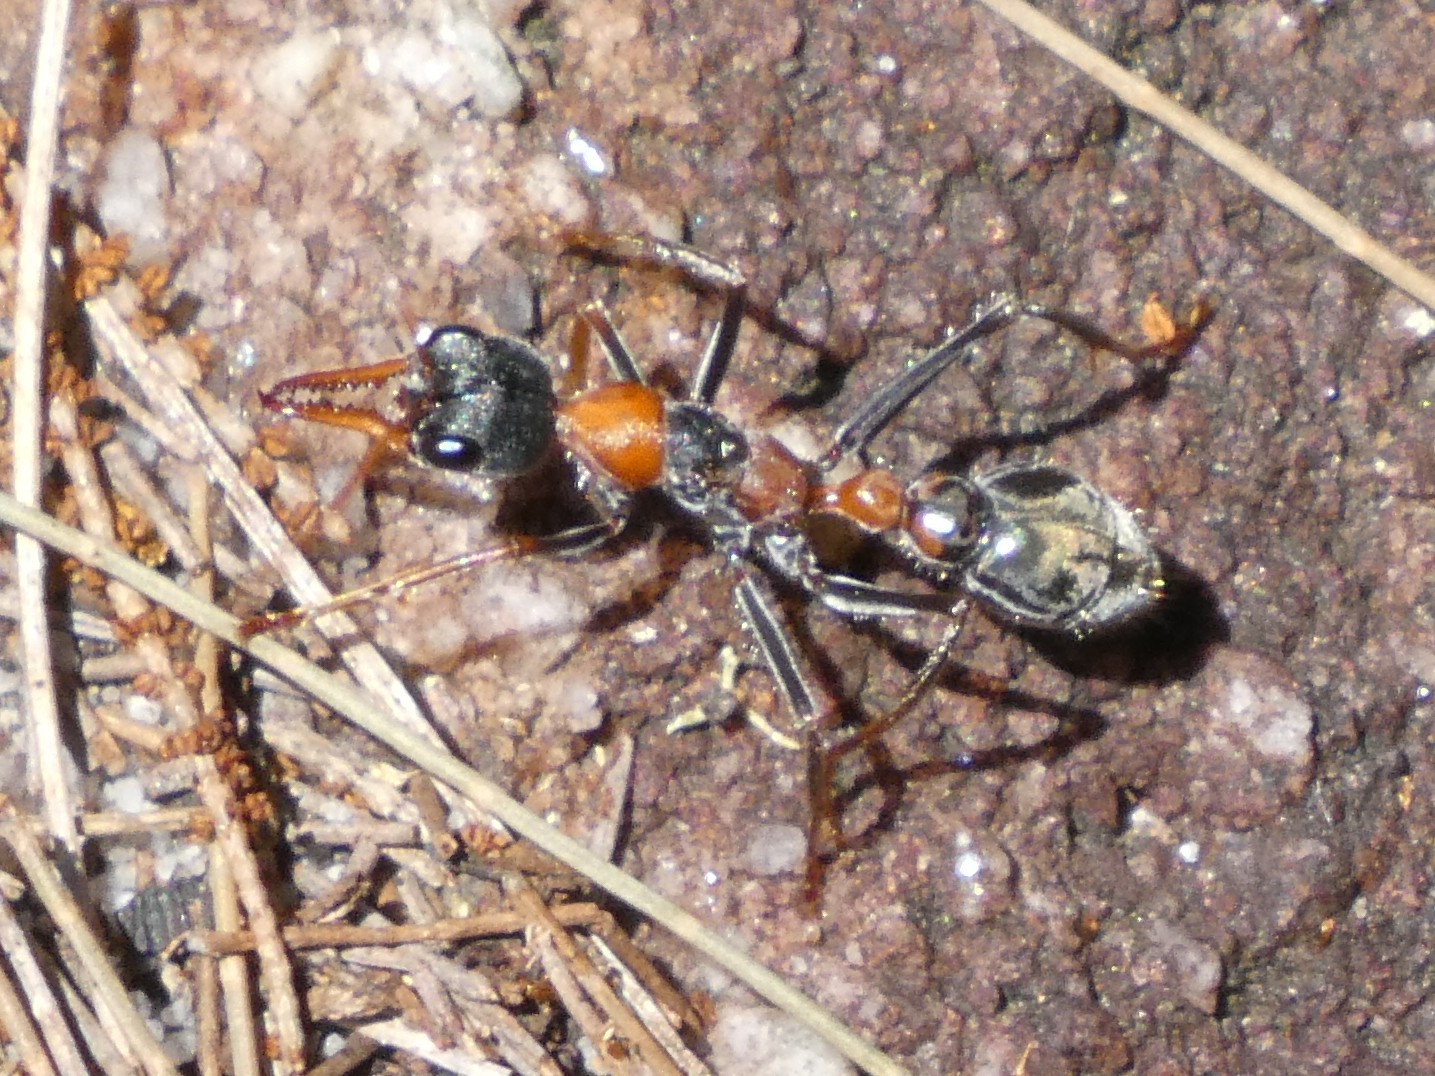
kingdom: Animalia
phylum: Arthropoda
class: Insecta
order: Hymenoptera
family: Formicidae
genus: Myrmecia
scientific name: Myrmecia nigrocincta
